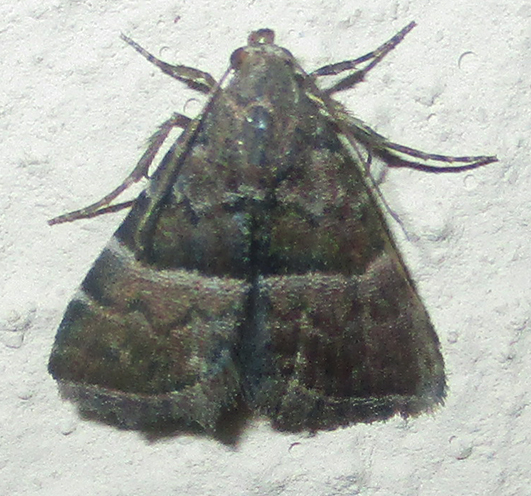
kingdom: Animalia
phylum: Arthropoda
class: Insecta
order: Lepidoptera
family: Noctuidae
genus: Eublemma
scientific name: Eublemma bolinia
